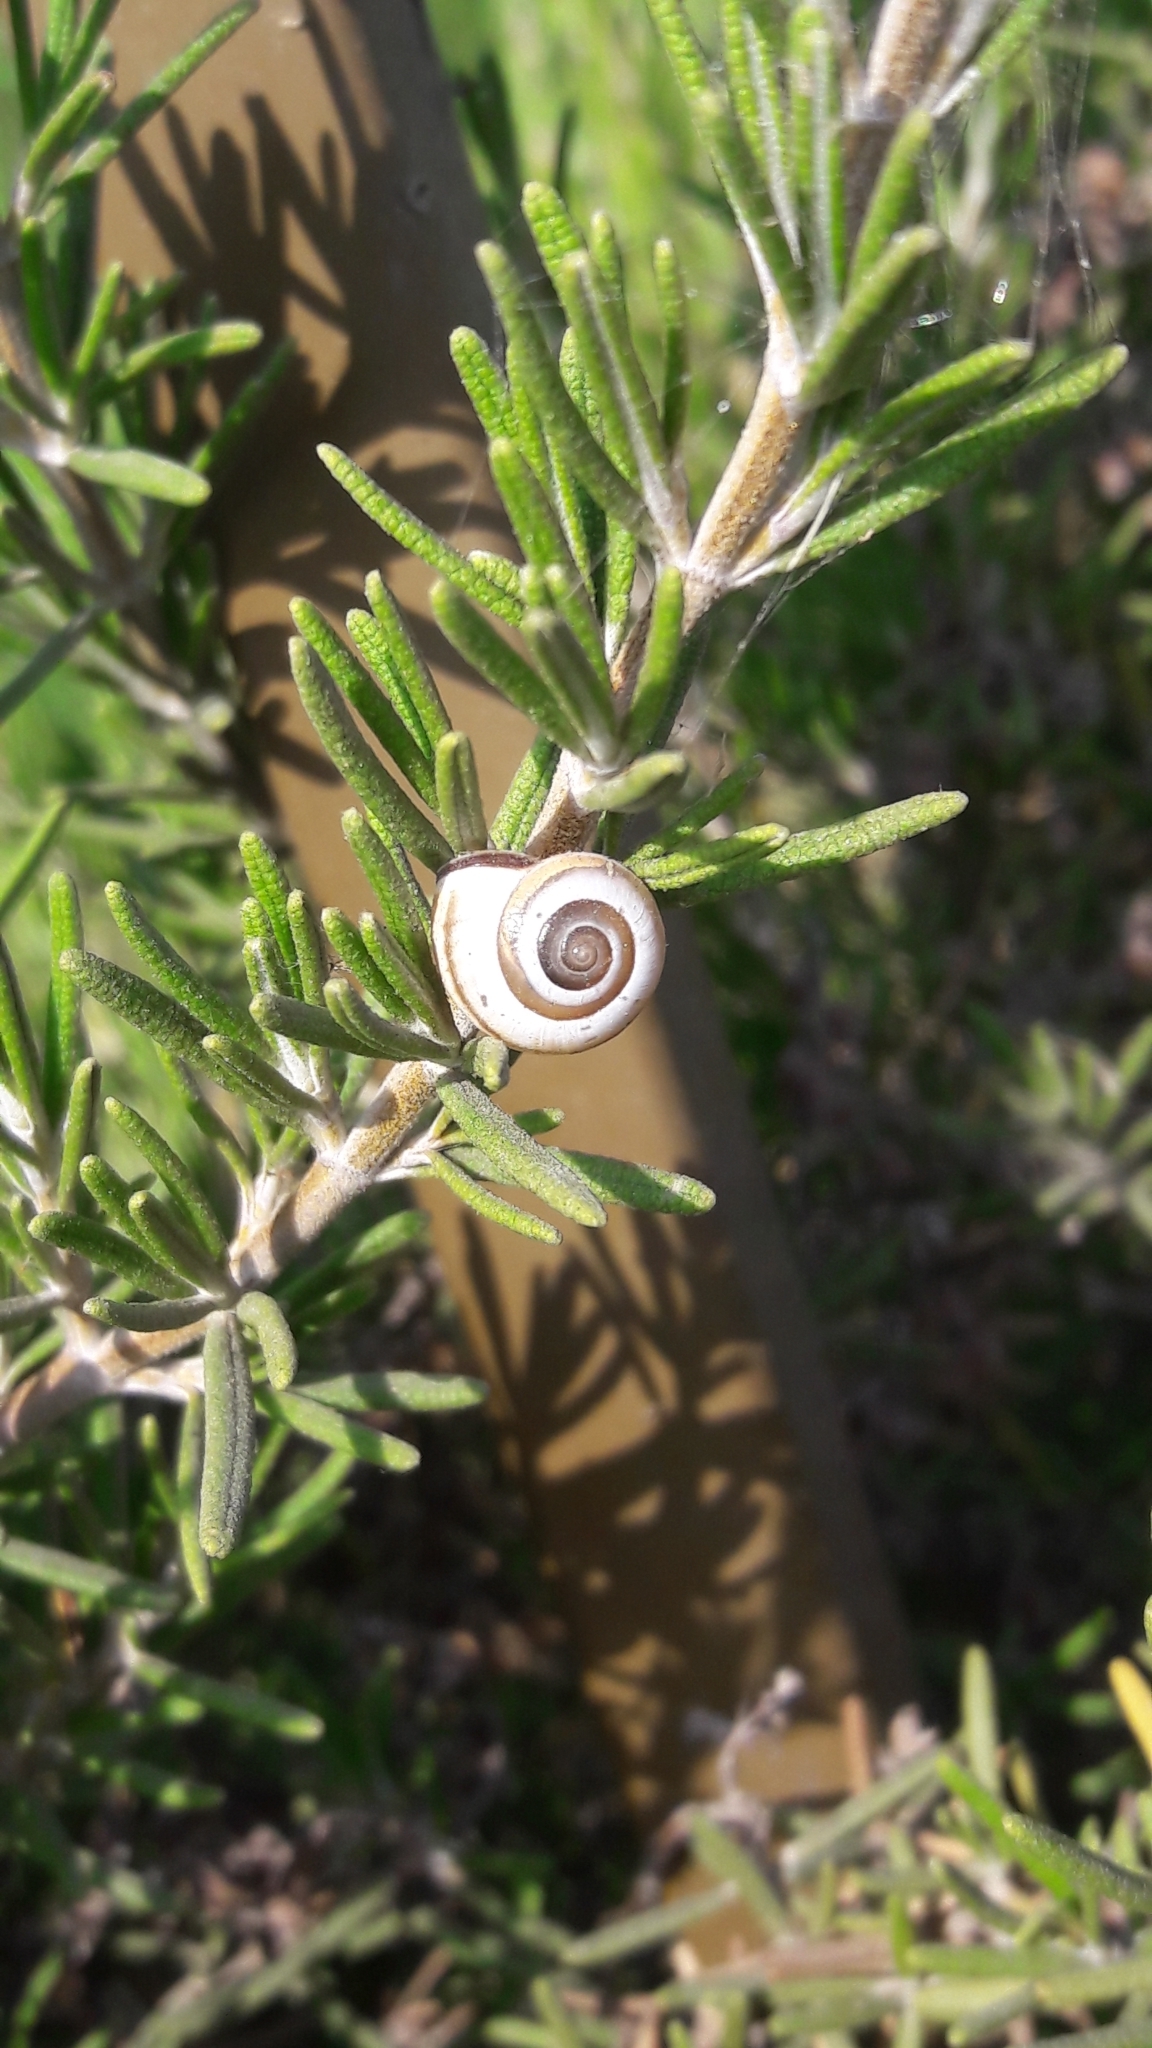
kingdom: Animalia
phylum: Mollusca
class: Gastropoda
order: Stylommatophora
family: Hygromiidae
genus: Monacha
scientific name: Monacha syriaca
